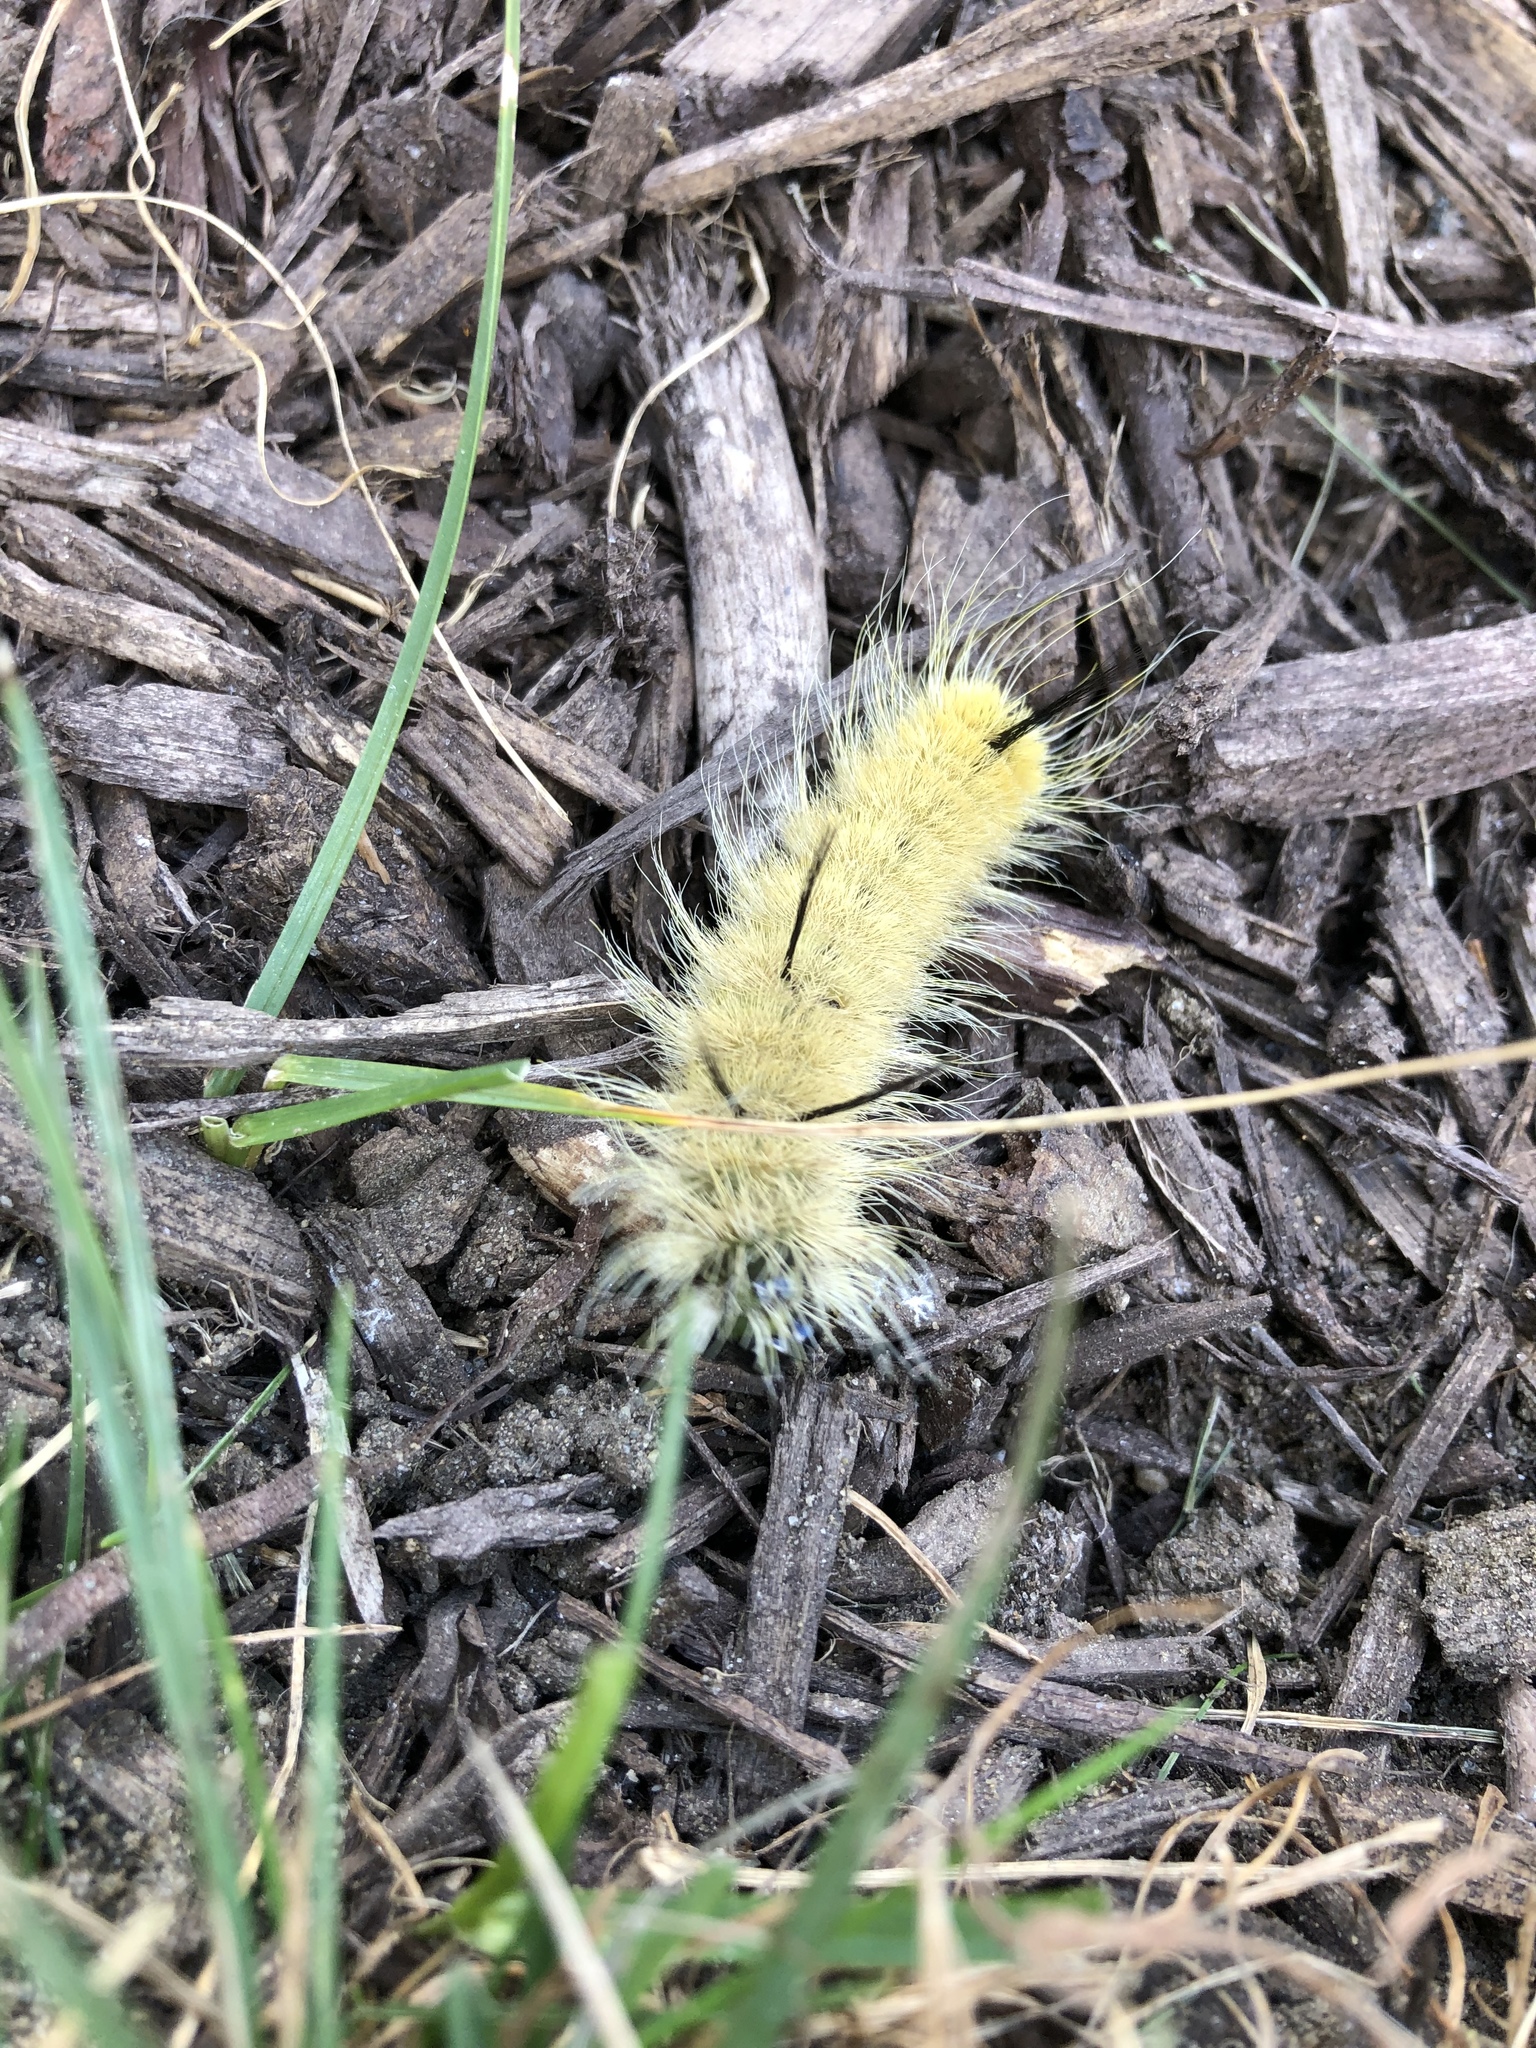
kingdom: Animalia
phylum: Arthropoda
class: Insecta
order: Lepidoptera
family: Noctuidae
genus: Acronicta
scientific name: Acronicta americana
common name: American dagger
